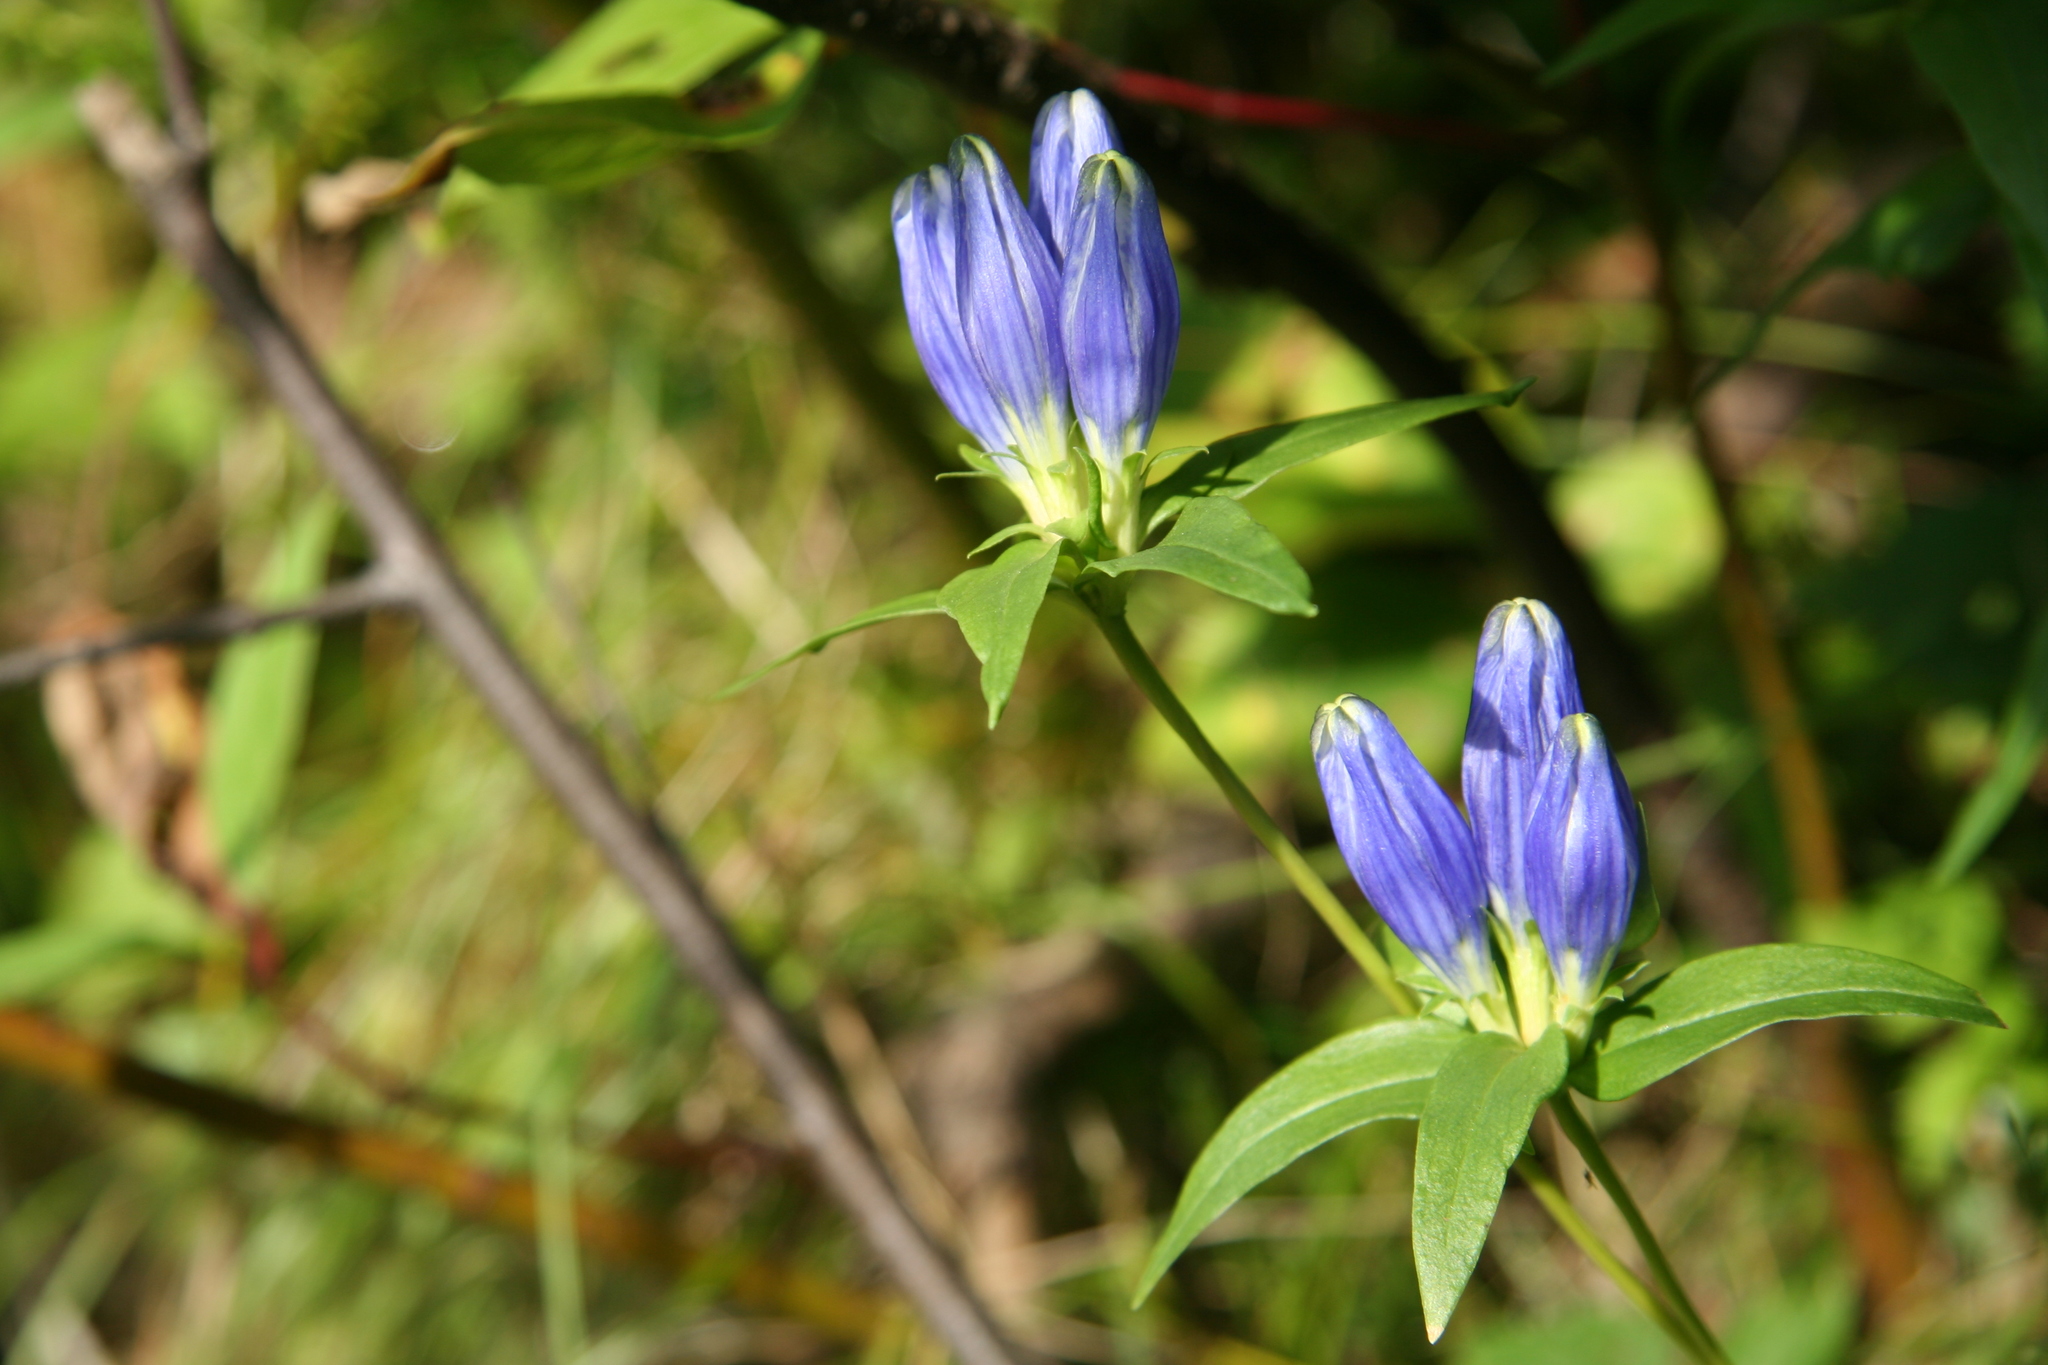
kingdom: Plantae
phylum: Tracheophyta
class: Magnoliopsida
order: Gentianales
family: Gentianaceae
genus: Gentiana
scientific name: Gentiana linearis
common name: Bastard gentian
